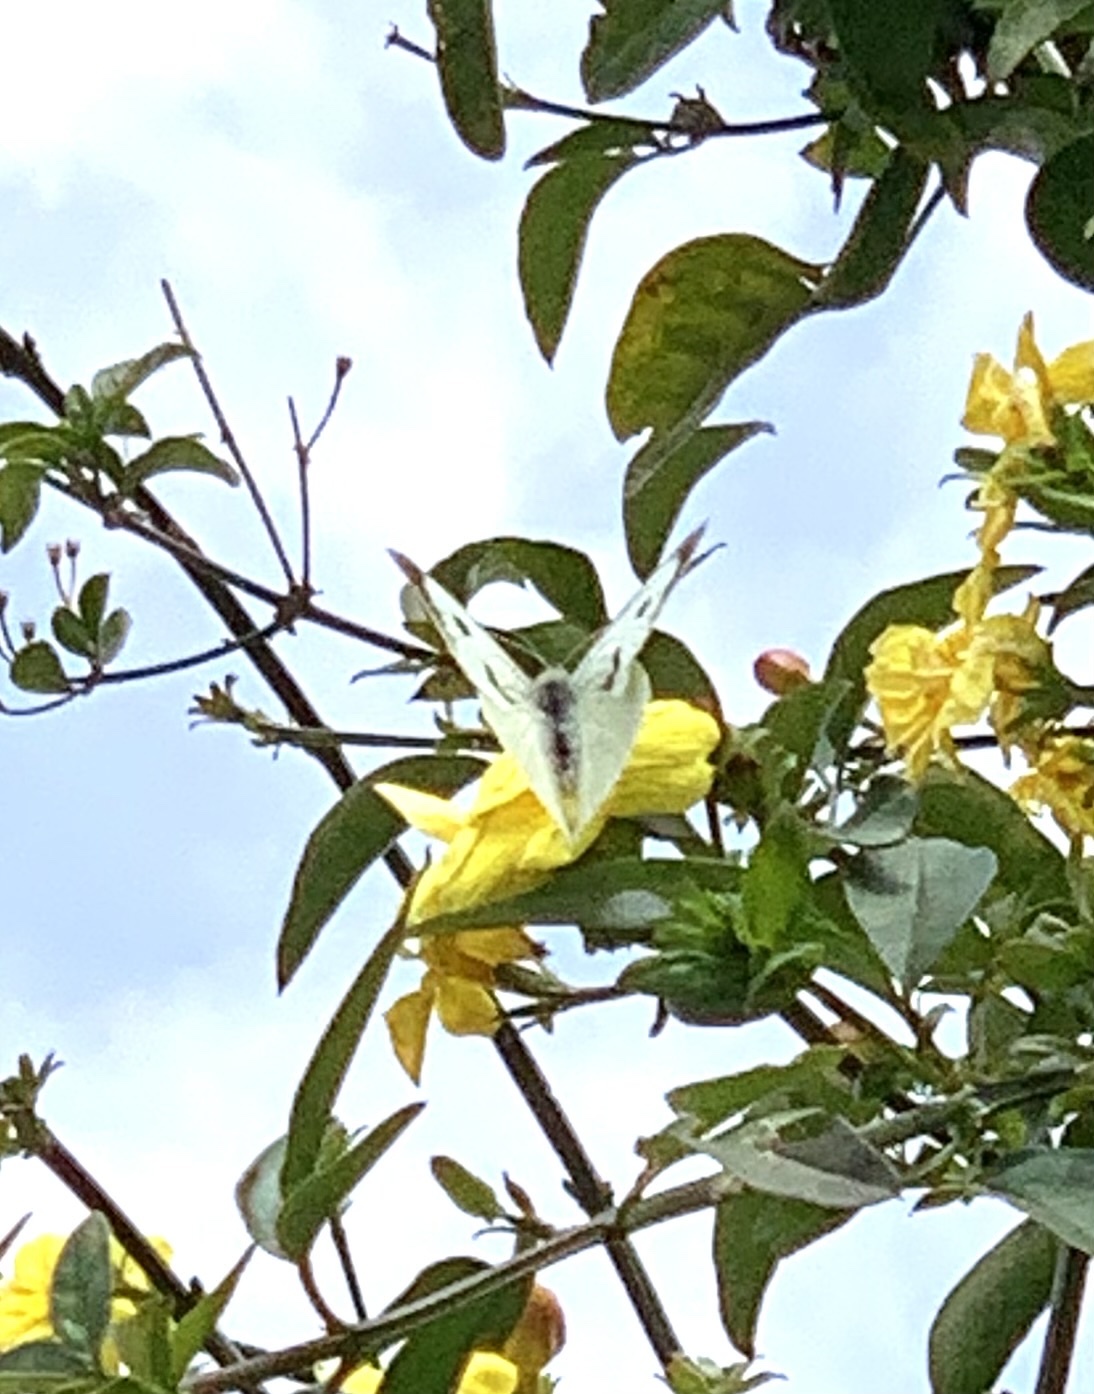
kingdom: Animalia
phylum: Arthropoda
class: Insecta
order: Lepidoptera
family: Pieridae
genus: Pieris
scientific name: Pieris brassicae
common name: Large white
